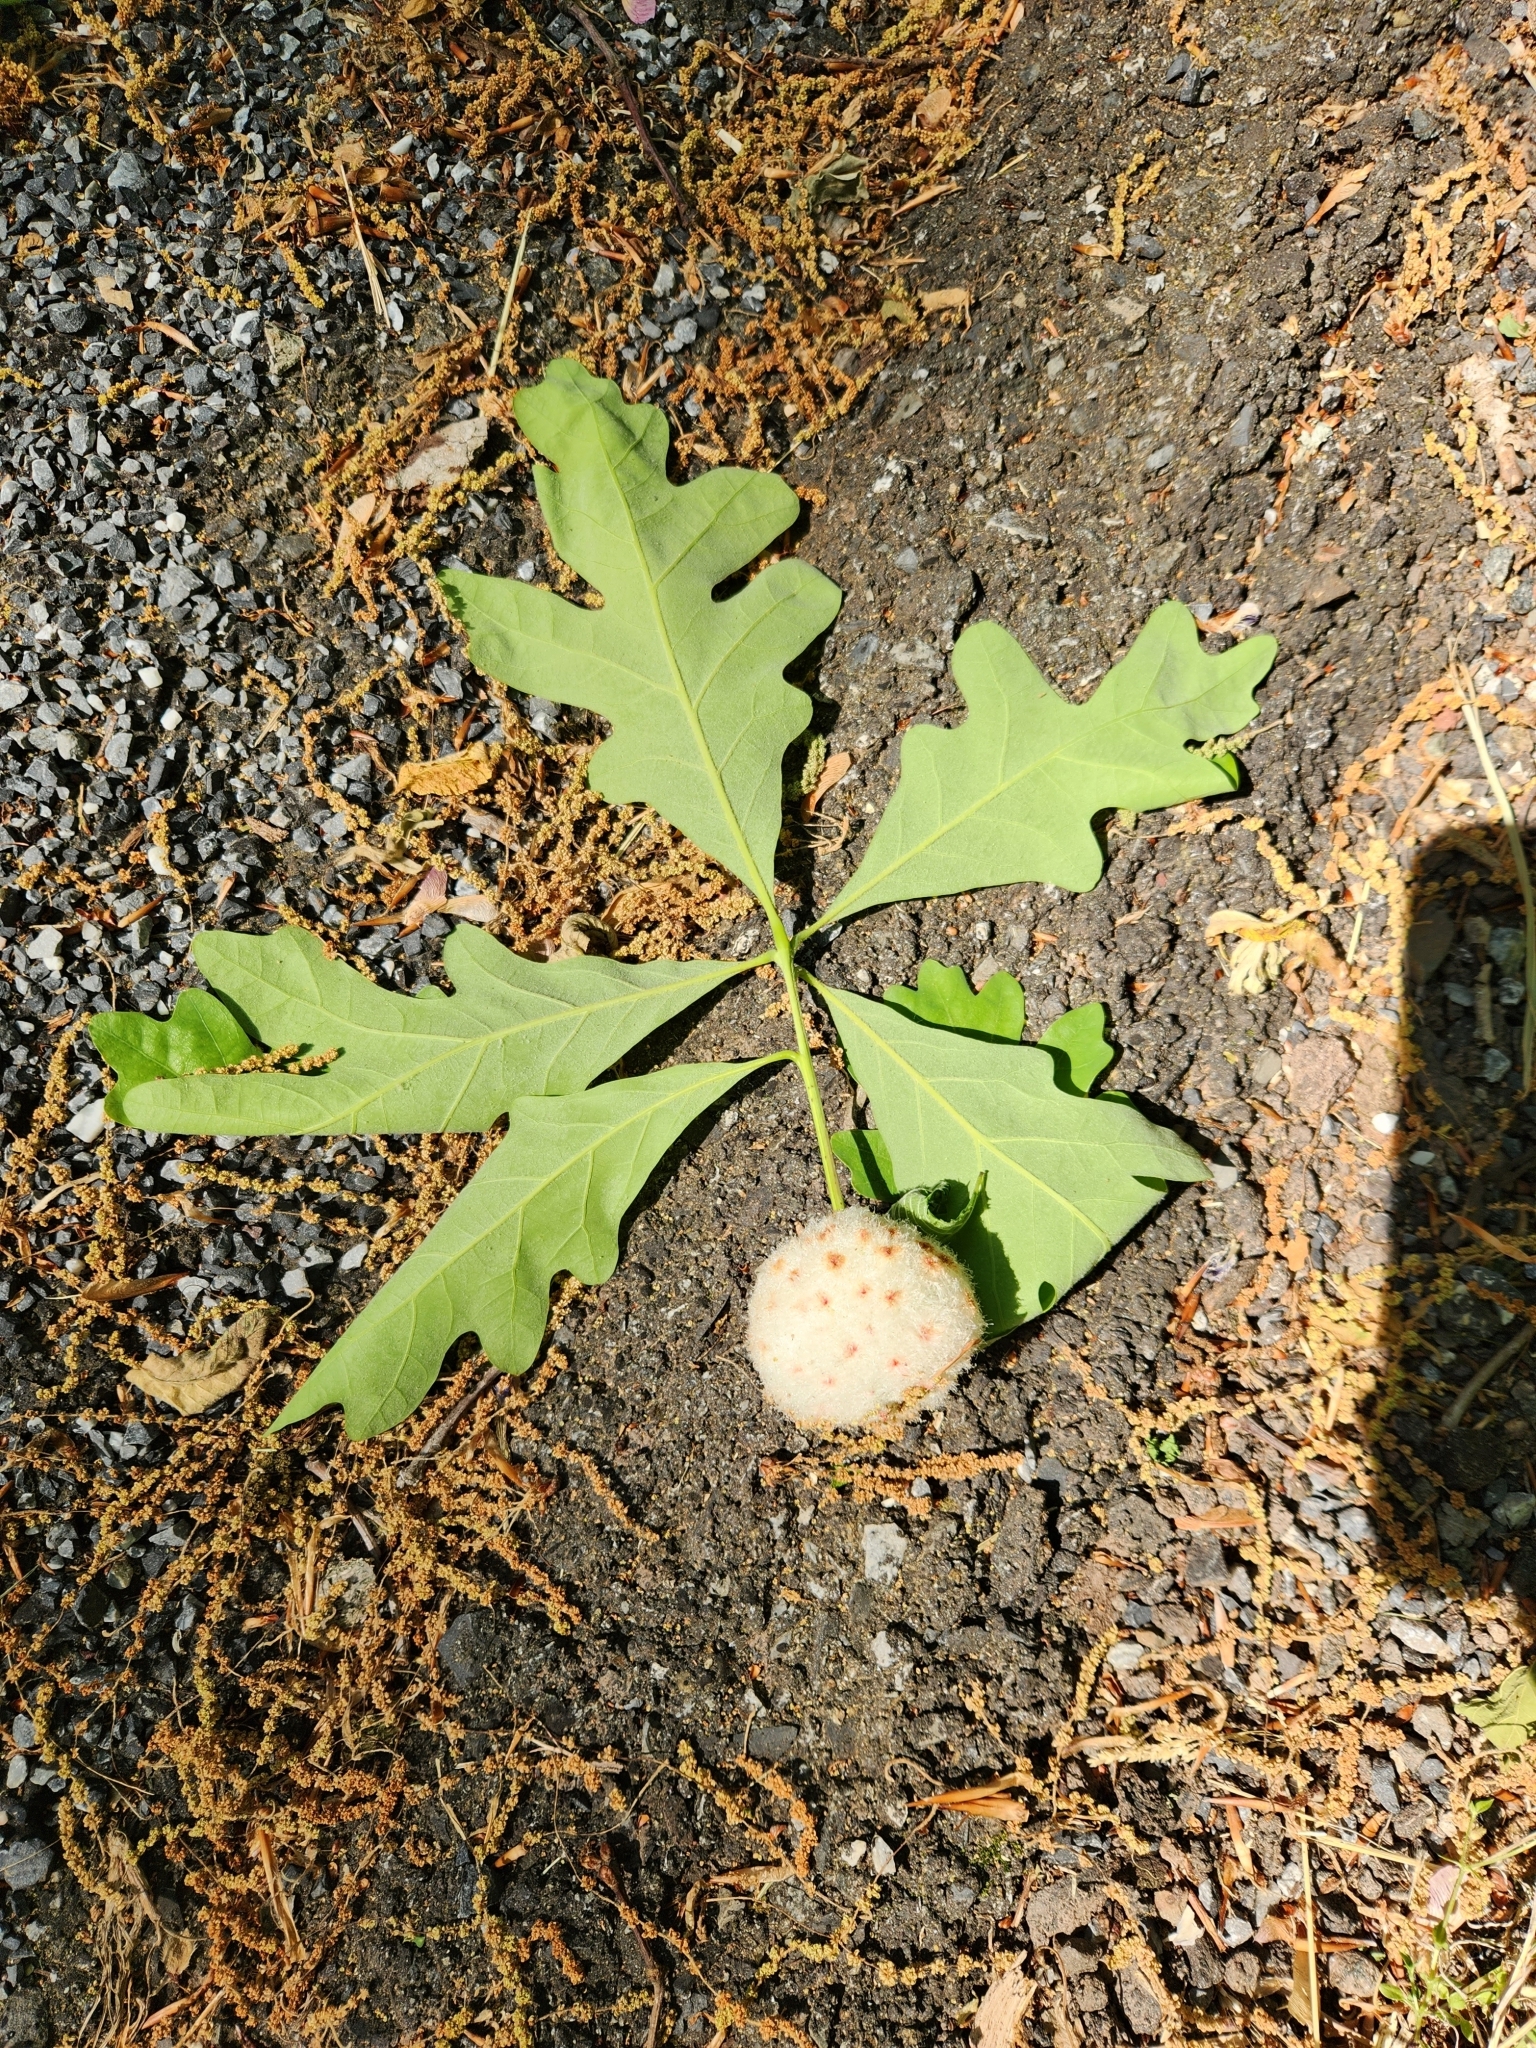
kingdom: Animalia
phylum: Arthropoda
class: Insecta
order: Hymenoptera
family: Cynipidae
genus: Callirhytis
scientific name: Callirhytis
